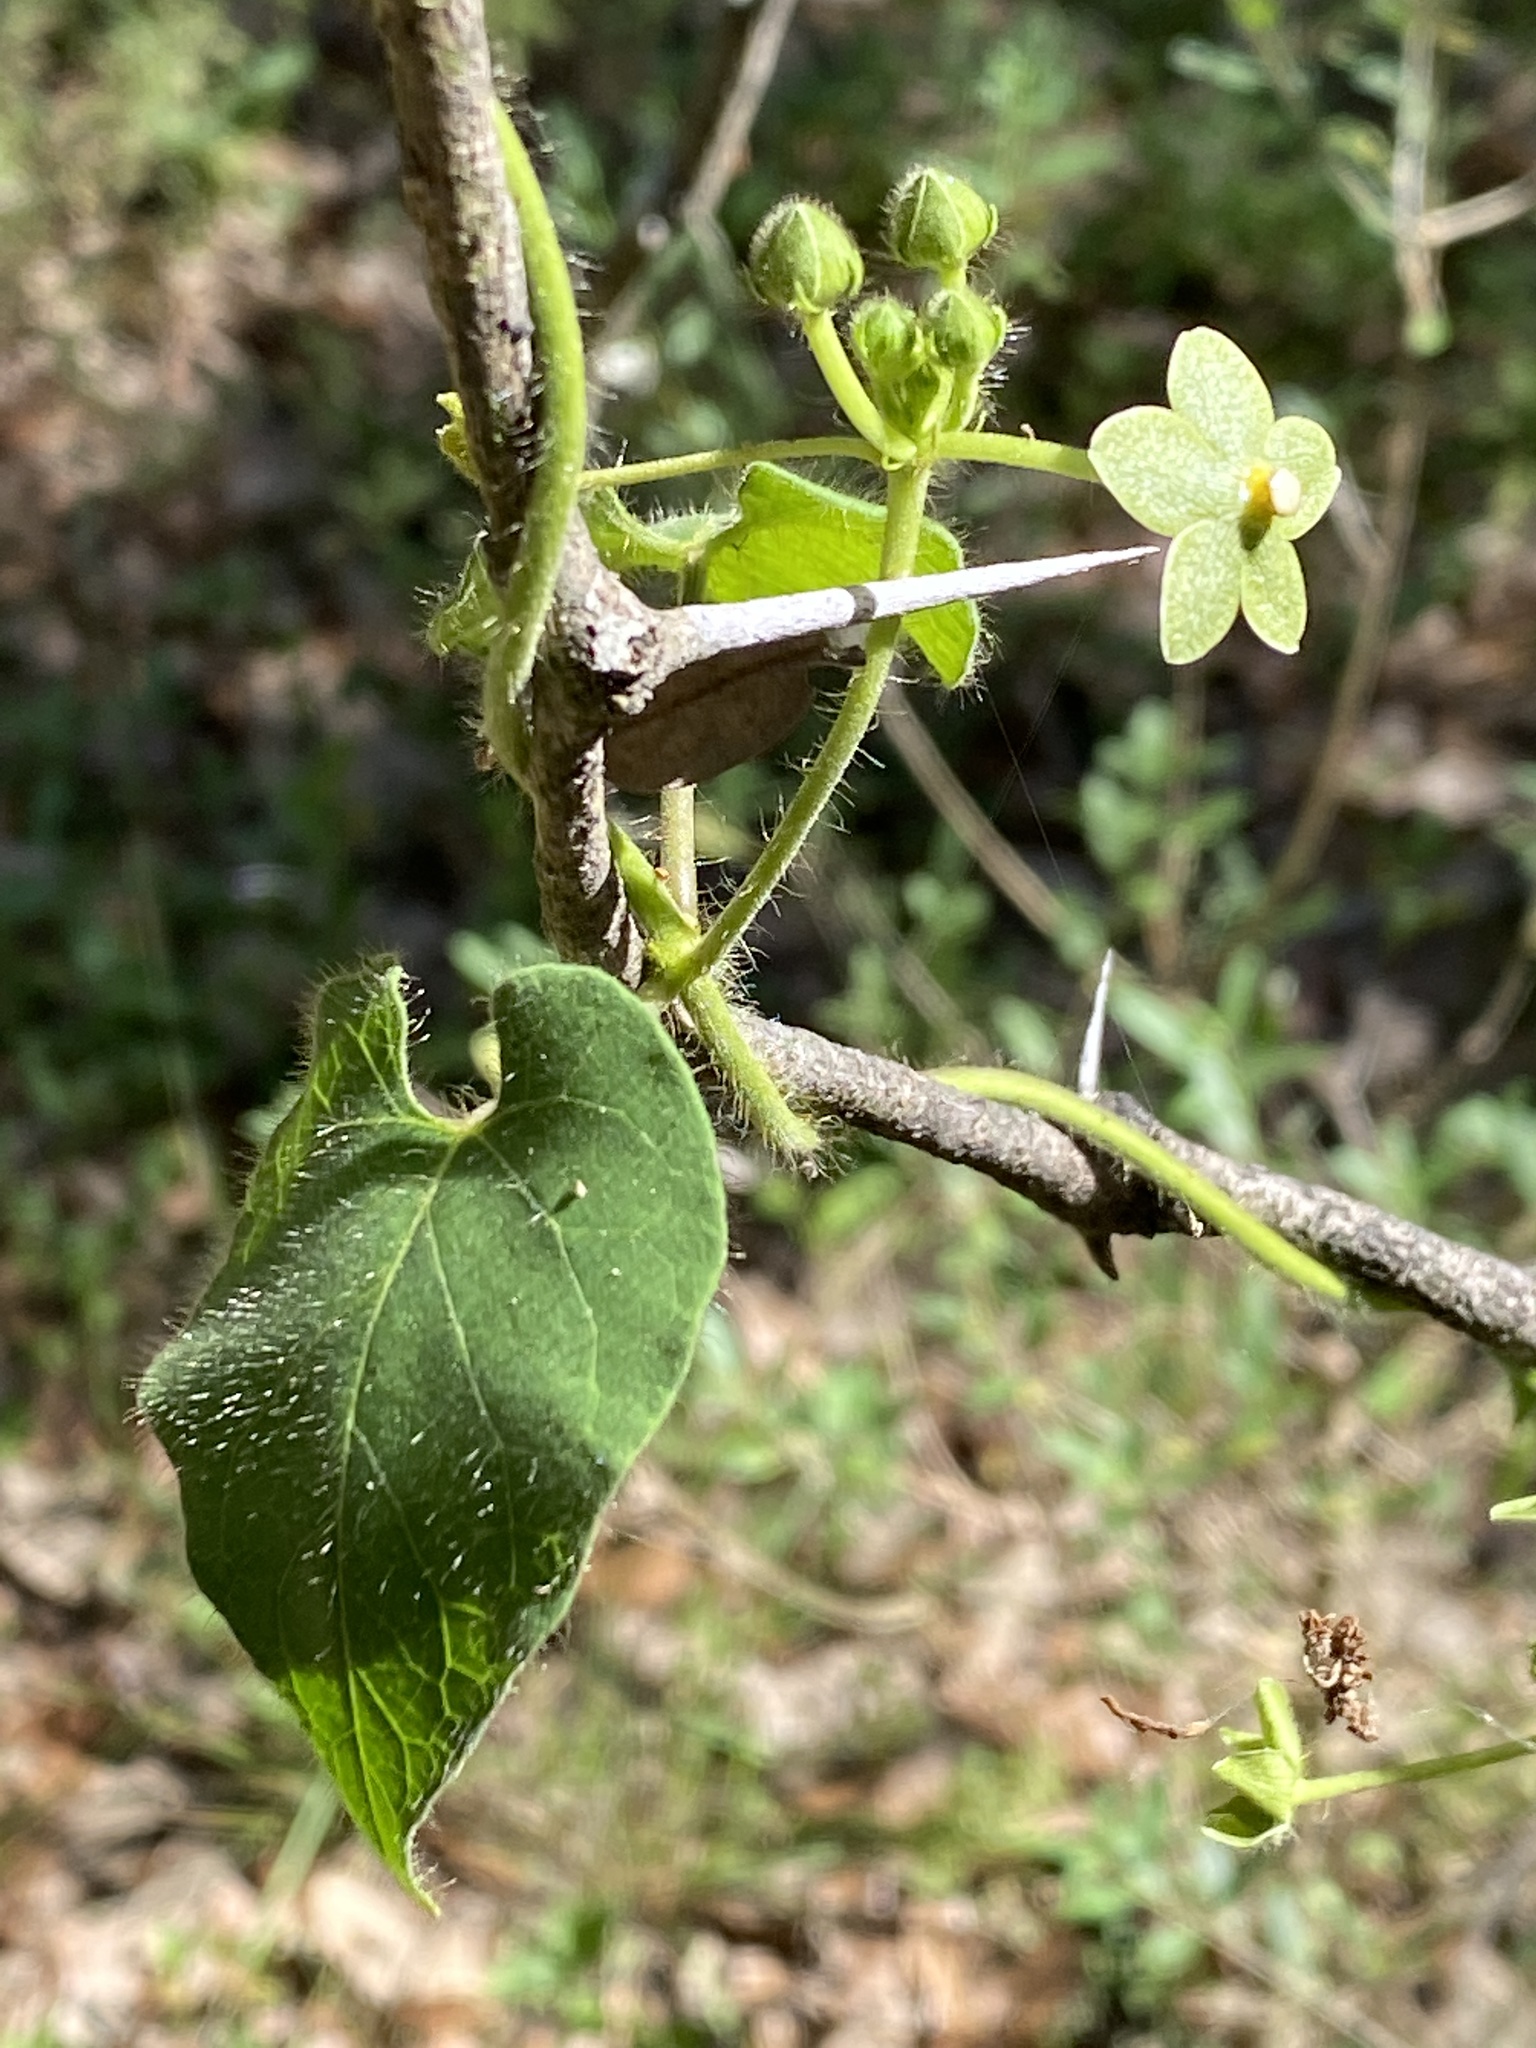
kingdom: Plantae
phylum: Tracheophyta
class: Magnoliopsida
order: Gentianales
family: Apocynaceae
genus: Dictyanthus
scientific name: Dictyanthus reticulatus
